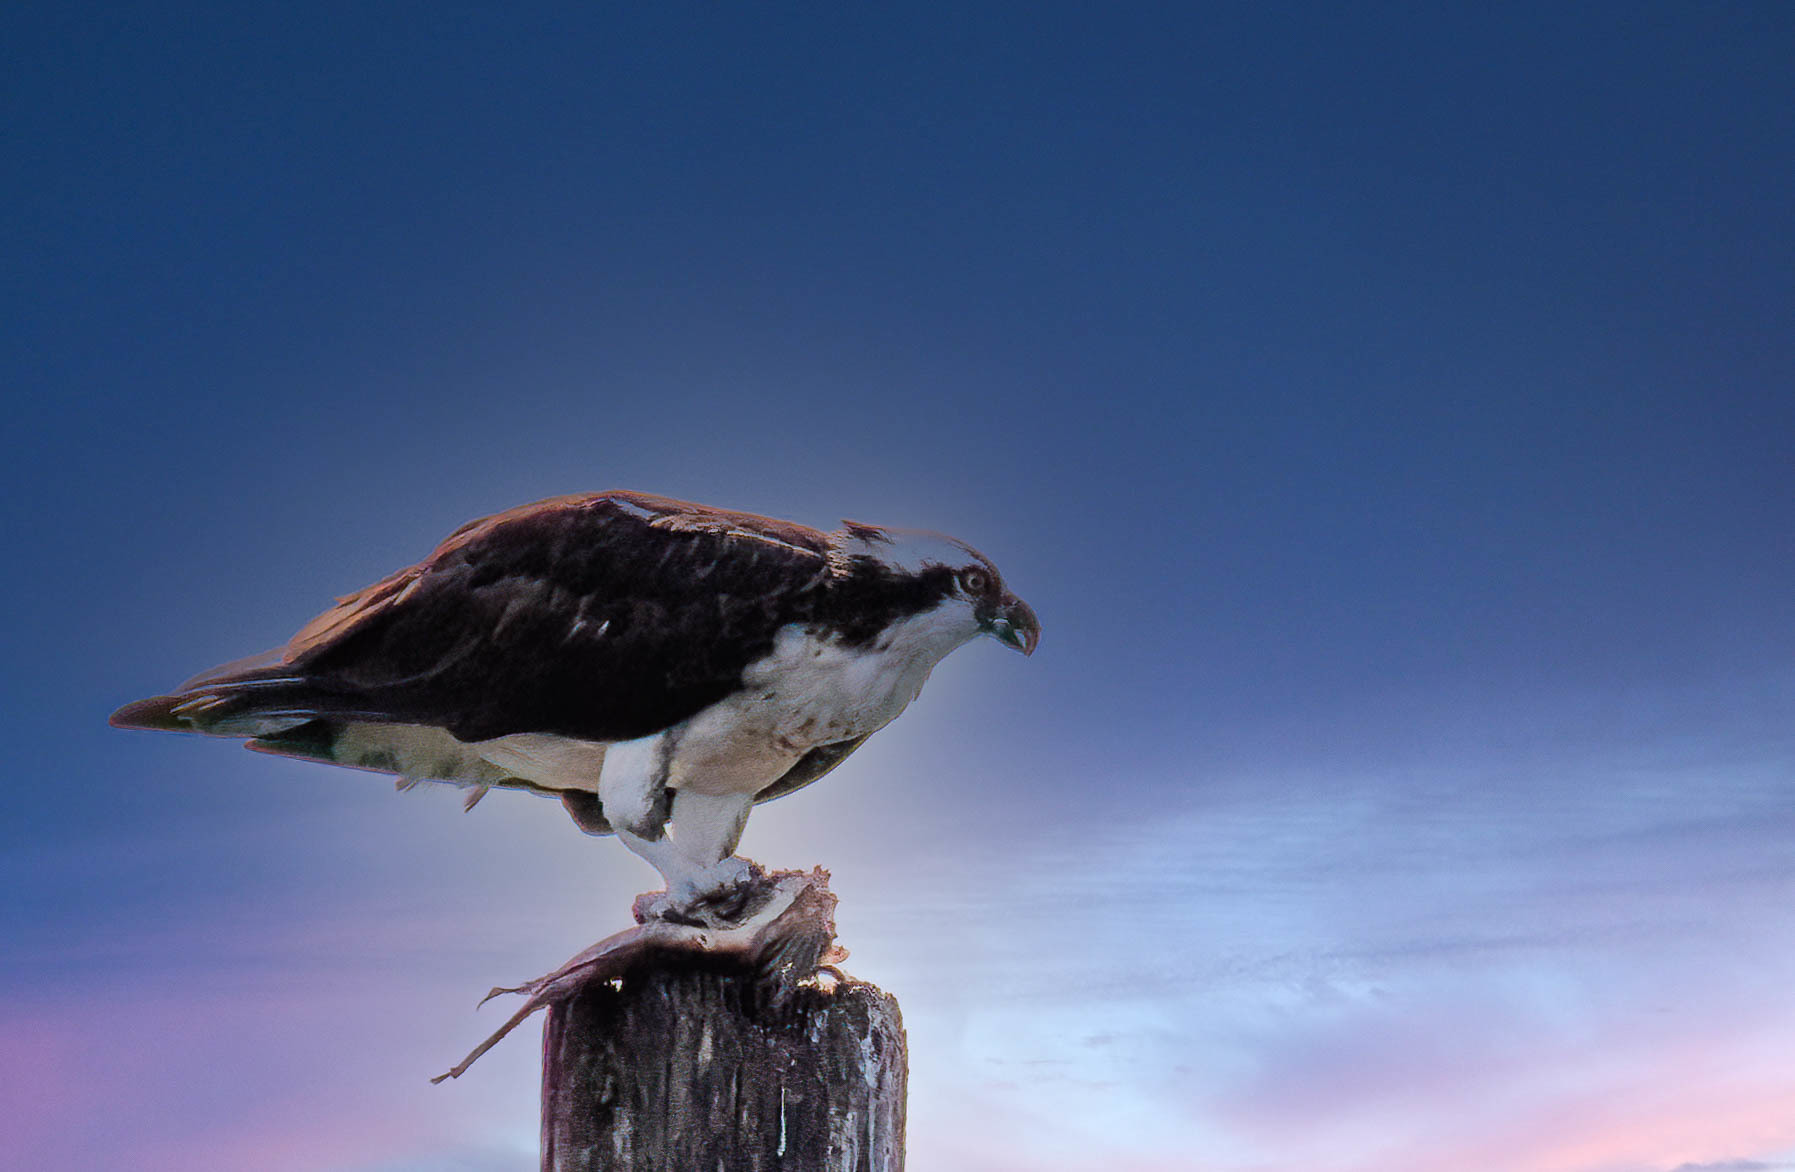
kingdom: Animalia
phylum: Chordata
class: Aves
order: Accipitriformes
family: Pandionidae
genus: Pandion
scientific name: Pandion haliaetus
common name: Osprey
